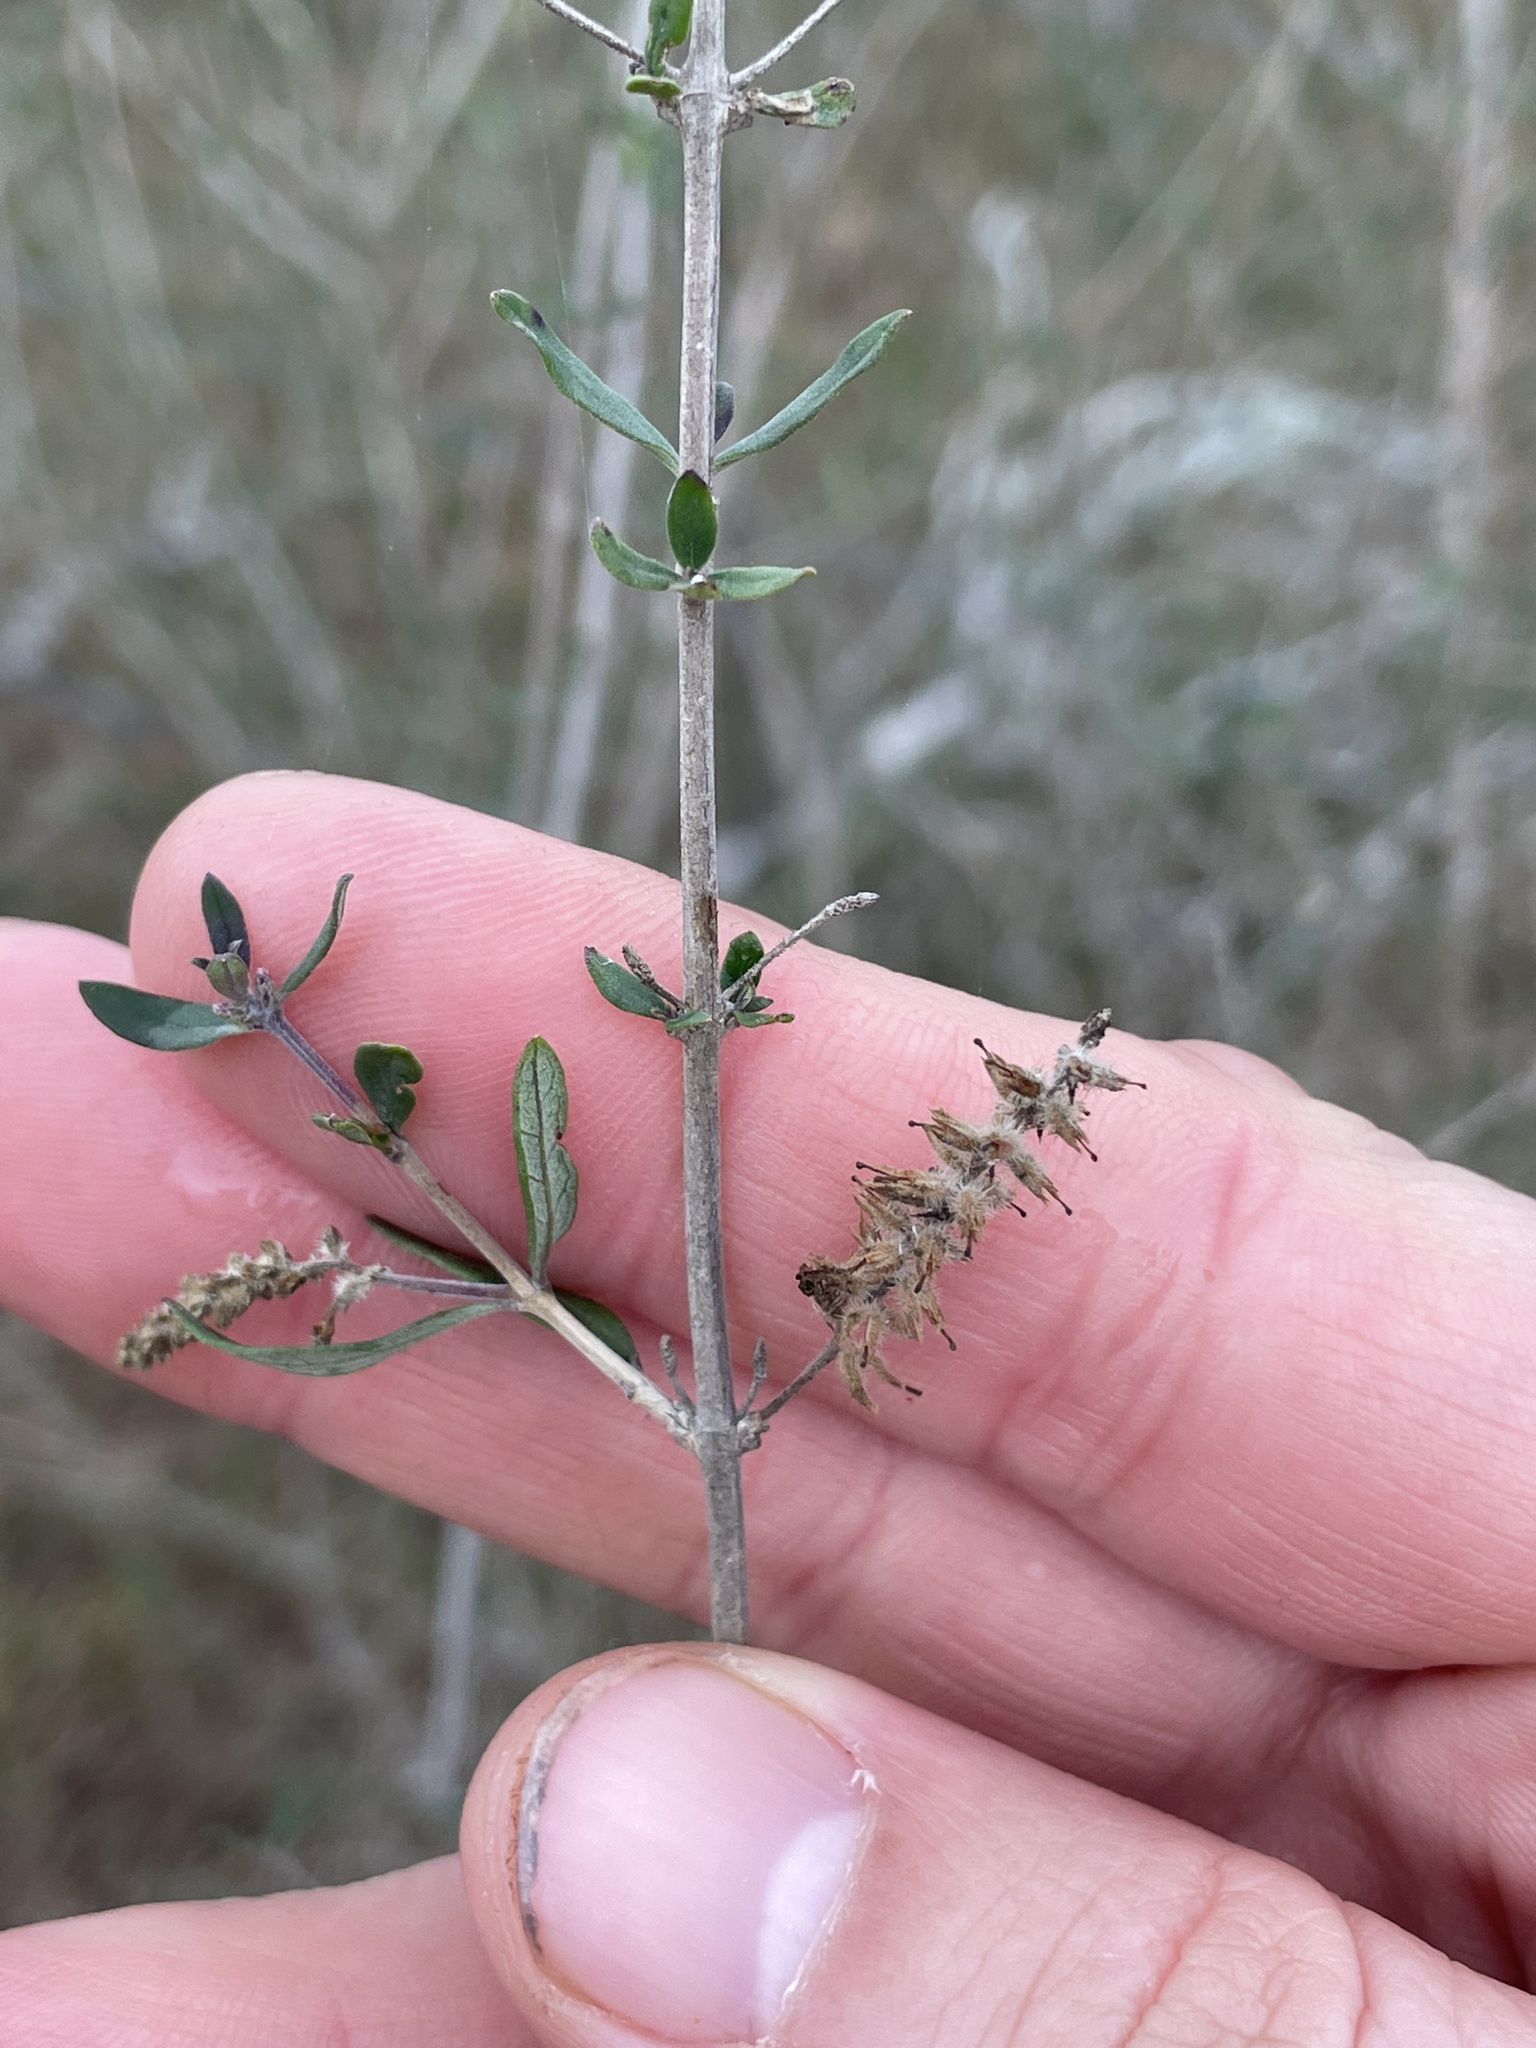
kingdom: Plantae
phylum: Tracheophyta
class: Magnoliopsida
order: Lamiales
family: Verbenaceae
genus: Aloysia
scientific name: Aloysia gratissima
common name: Common bee-brush
